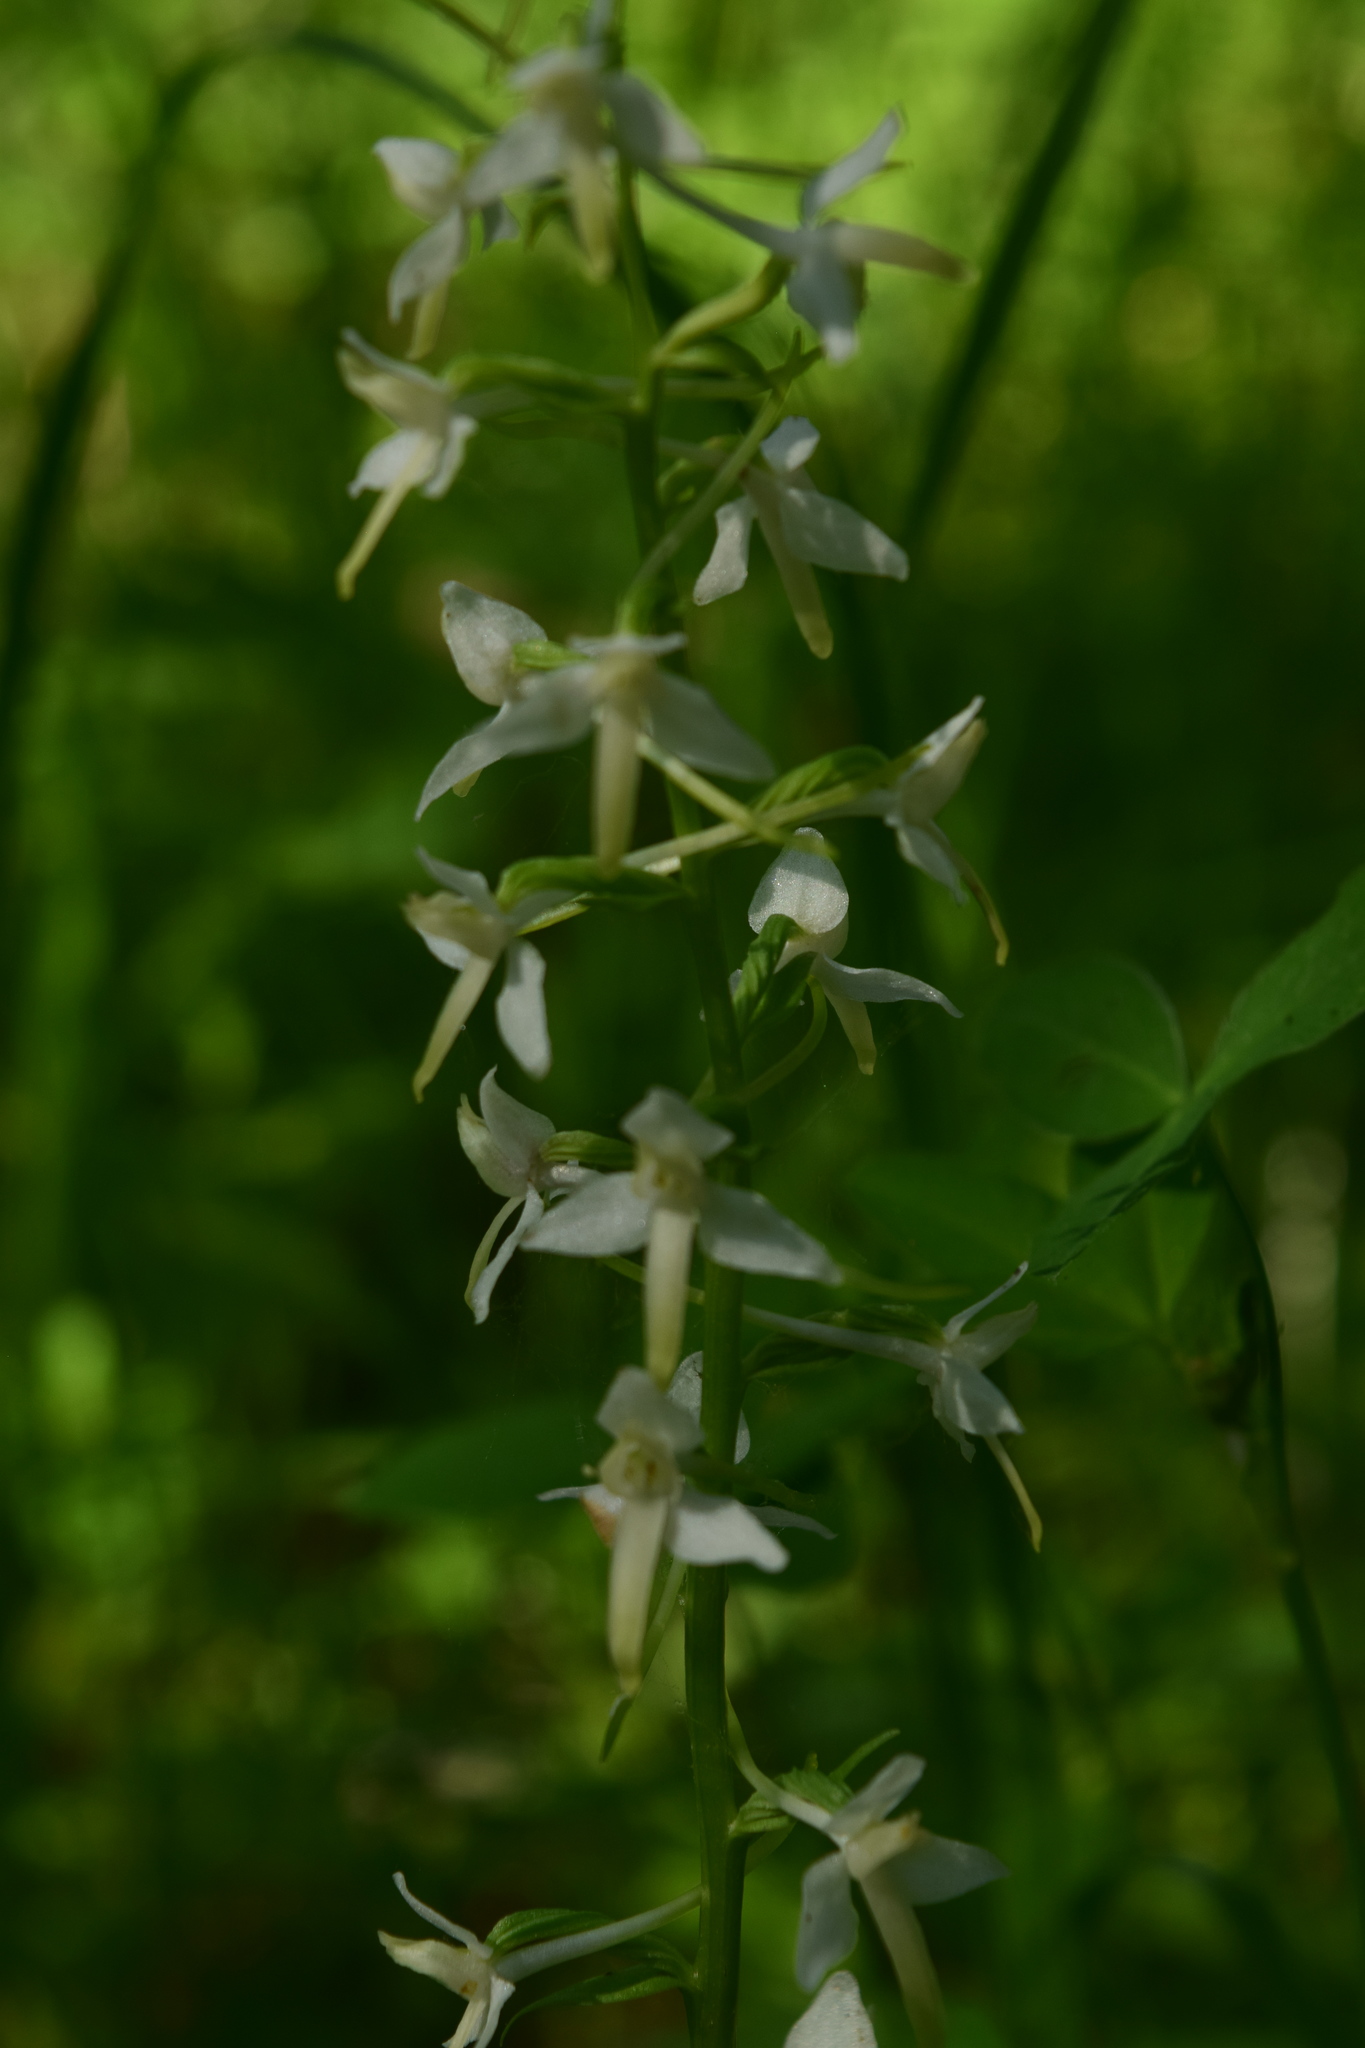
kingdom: Plantae
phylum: Tracheophyta
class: Liliopsida
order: Asparagales
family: Orchidaceae
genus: Platanthera
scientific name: Platanthera bifolia
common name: Lesser butterfly-orchid
